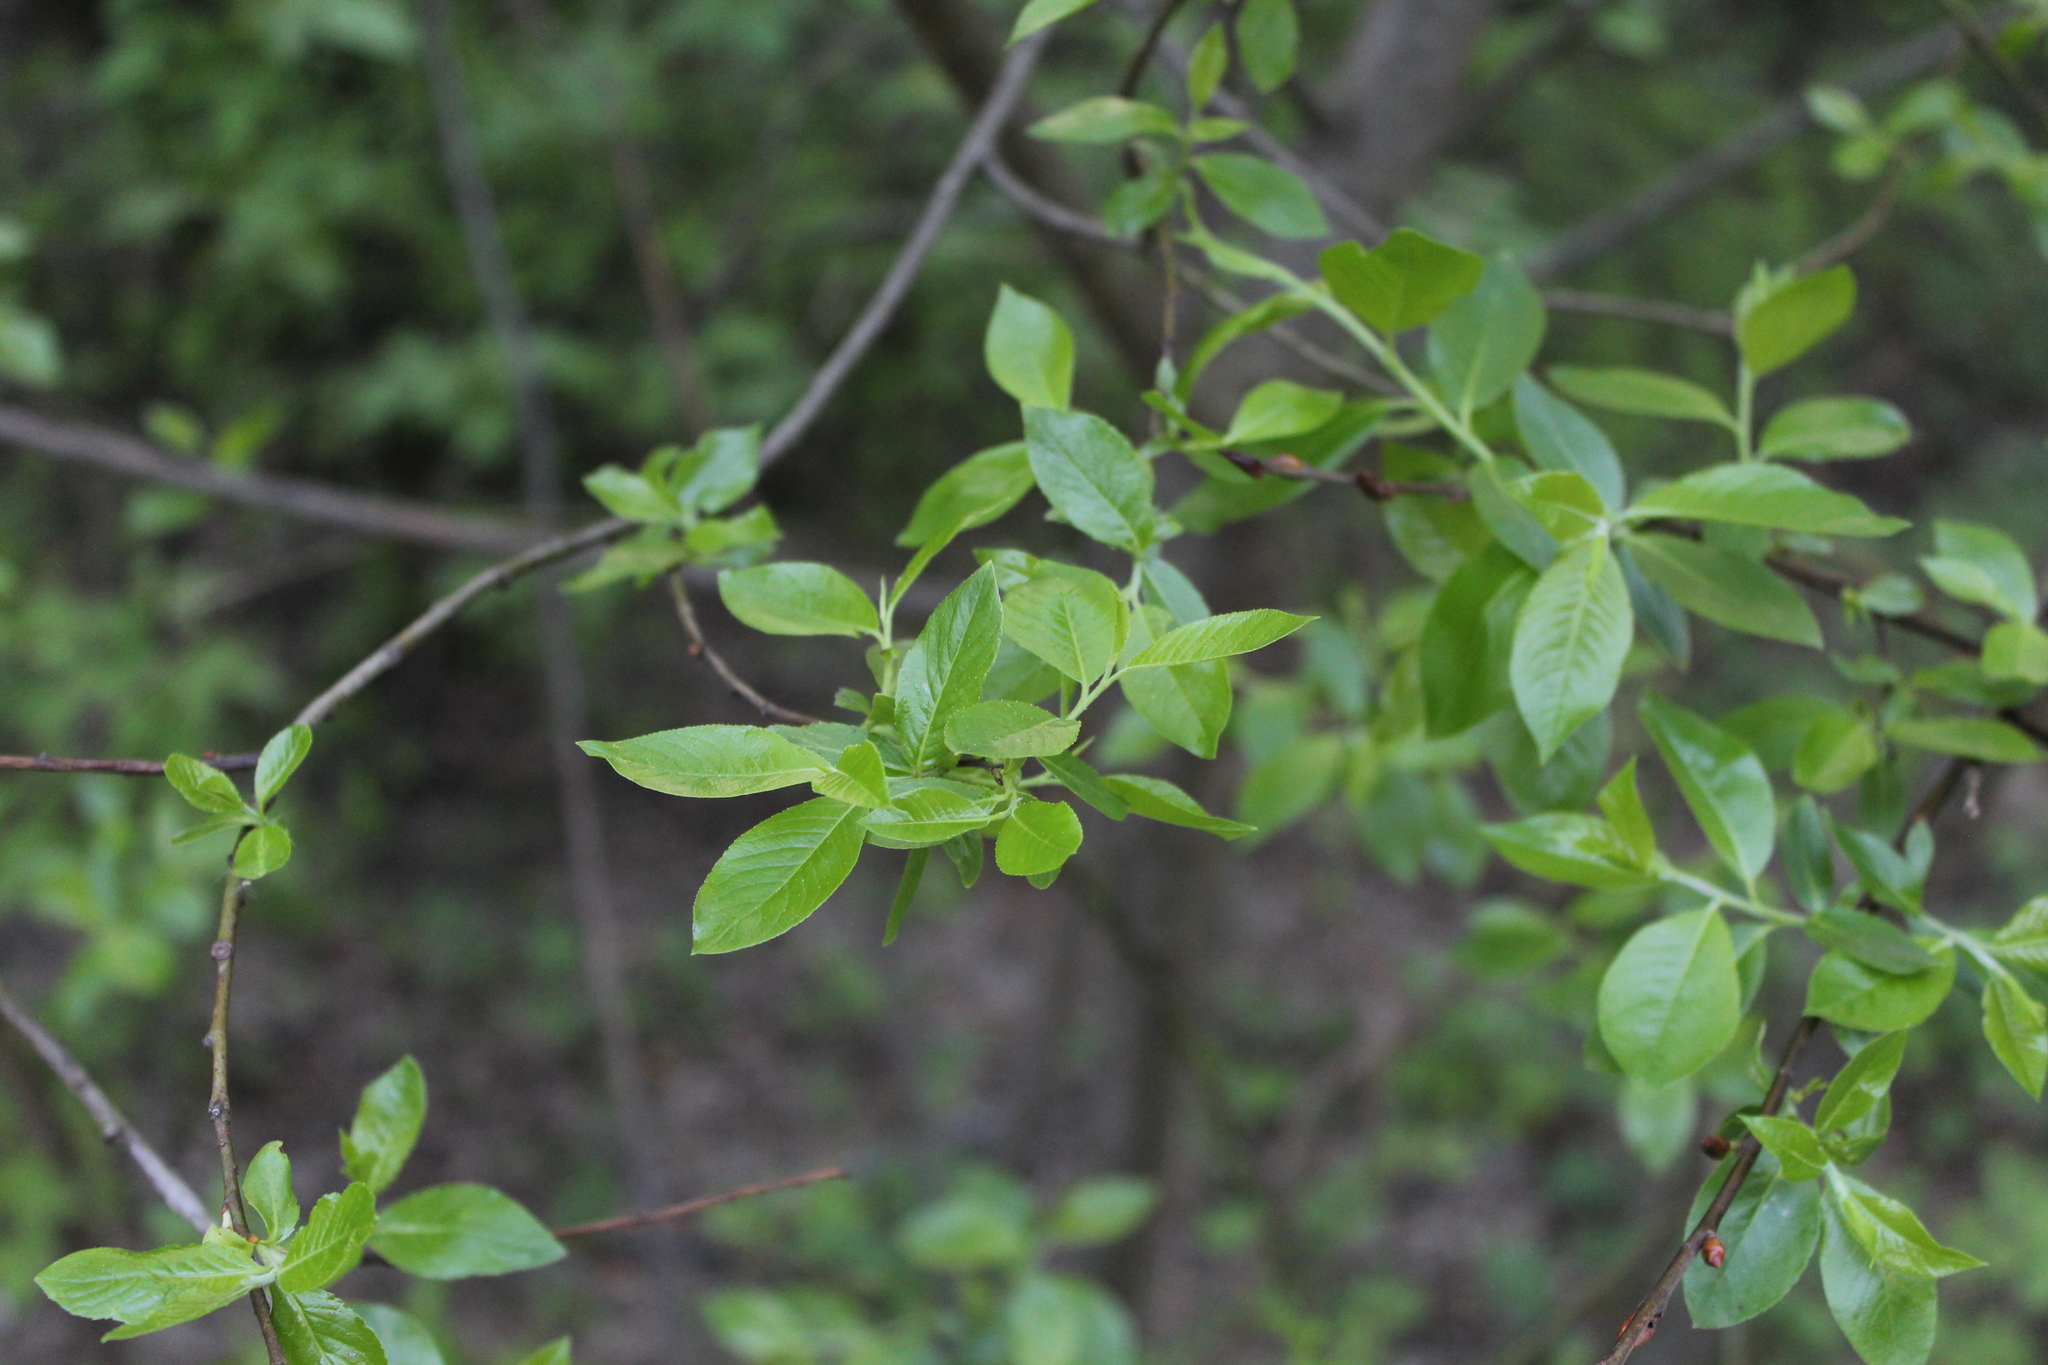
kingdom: Plantae
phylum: Tracheophyta
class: Magnoliopsida
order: Malpighiales
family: Salicaceae
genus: Salix
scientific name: Salix myrsinifolia
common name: Dark-leaved willow
